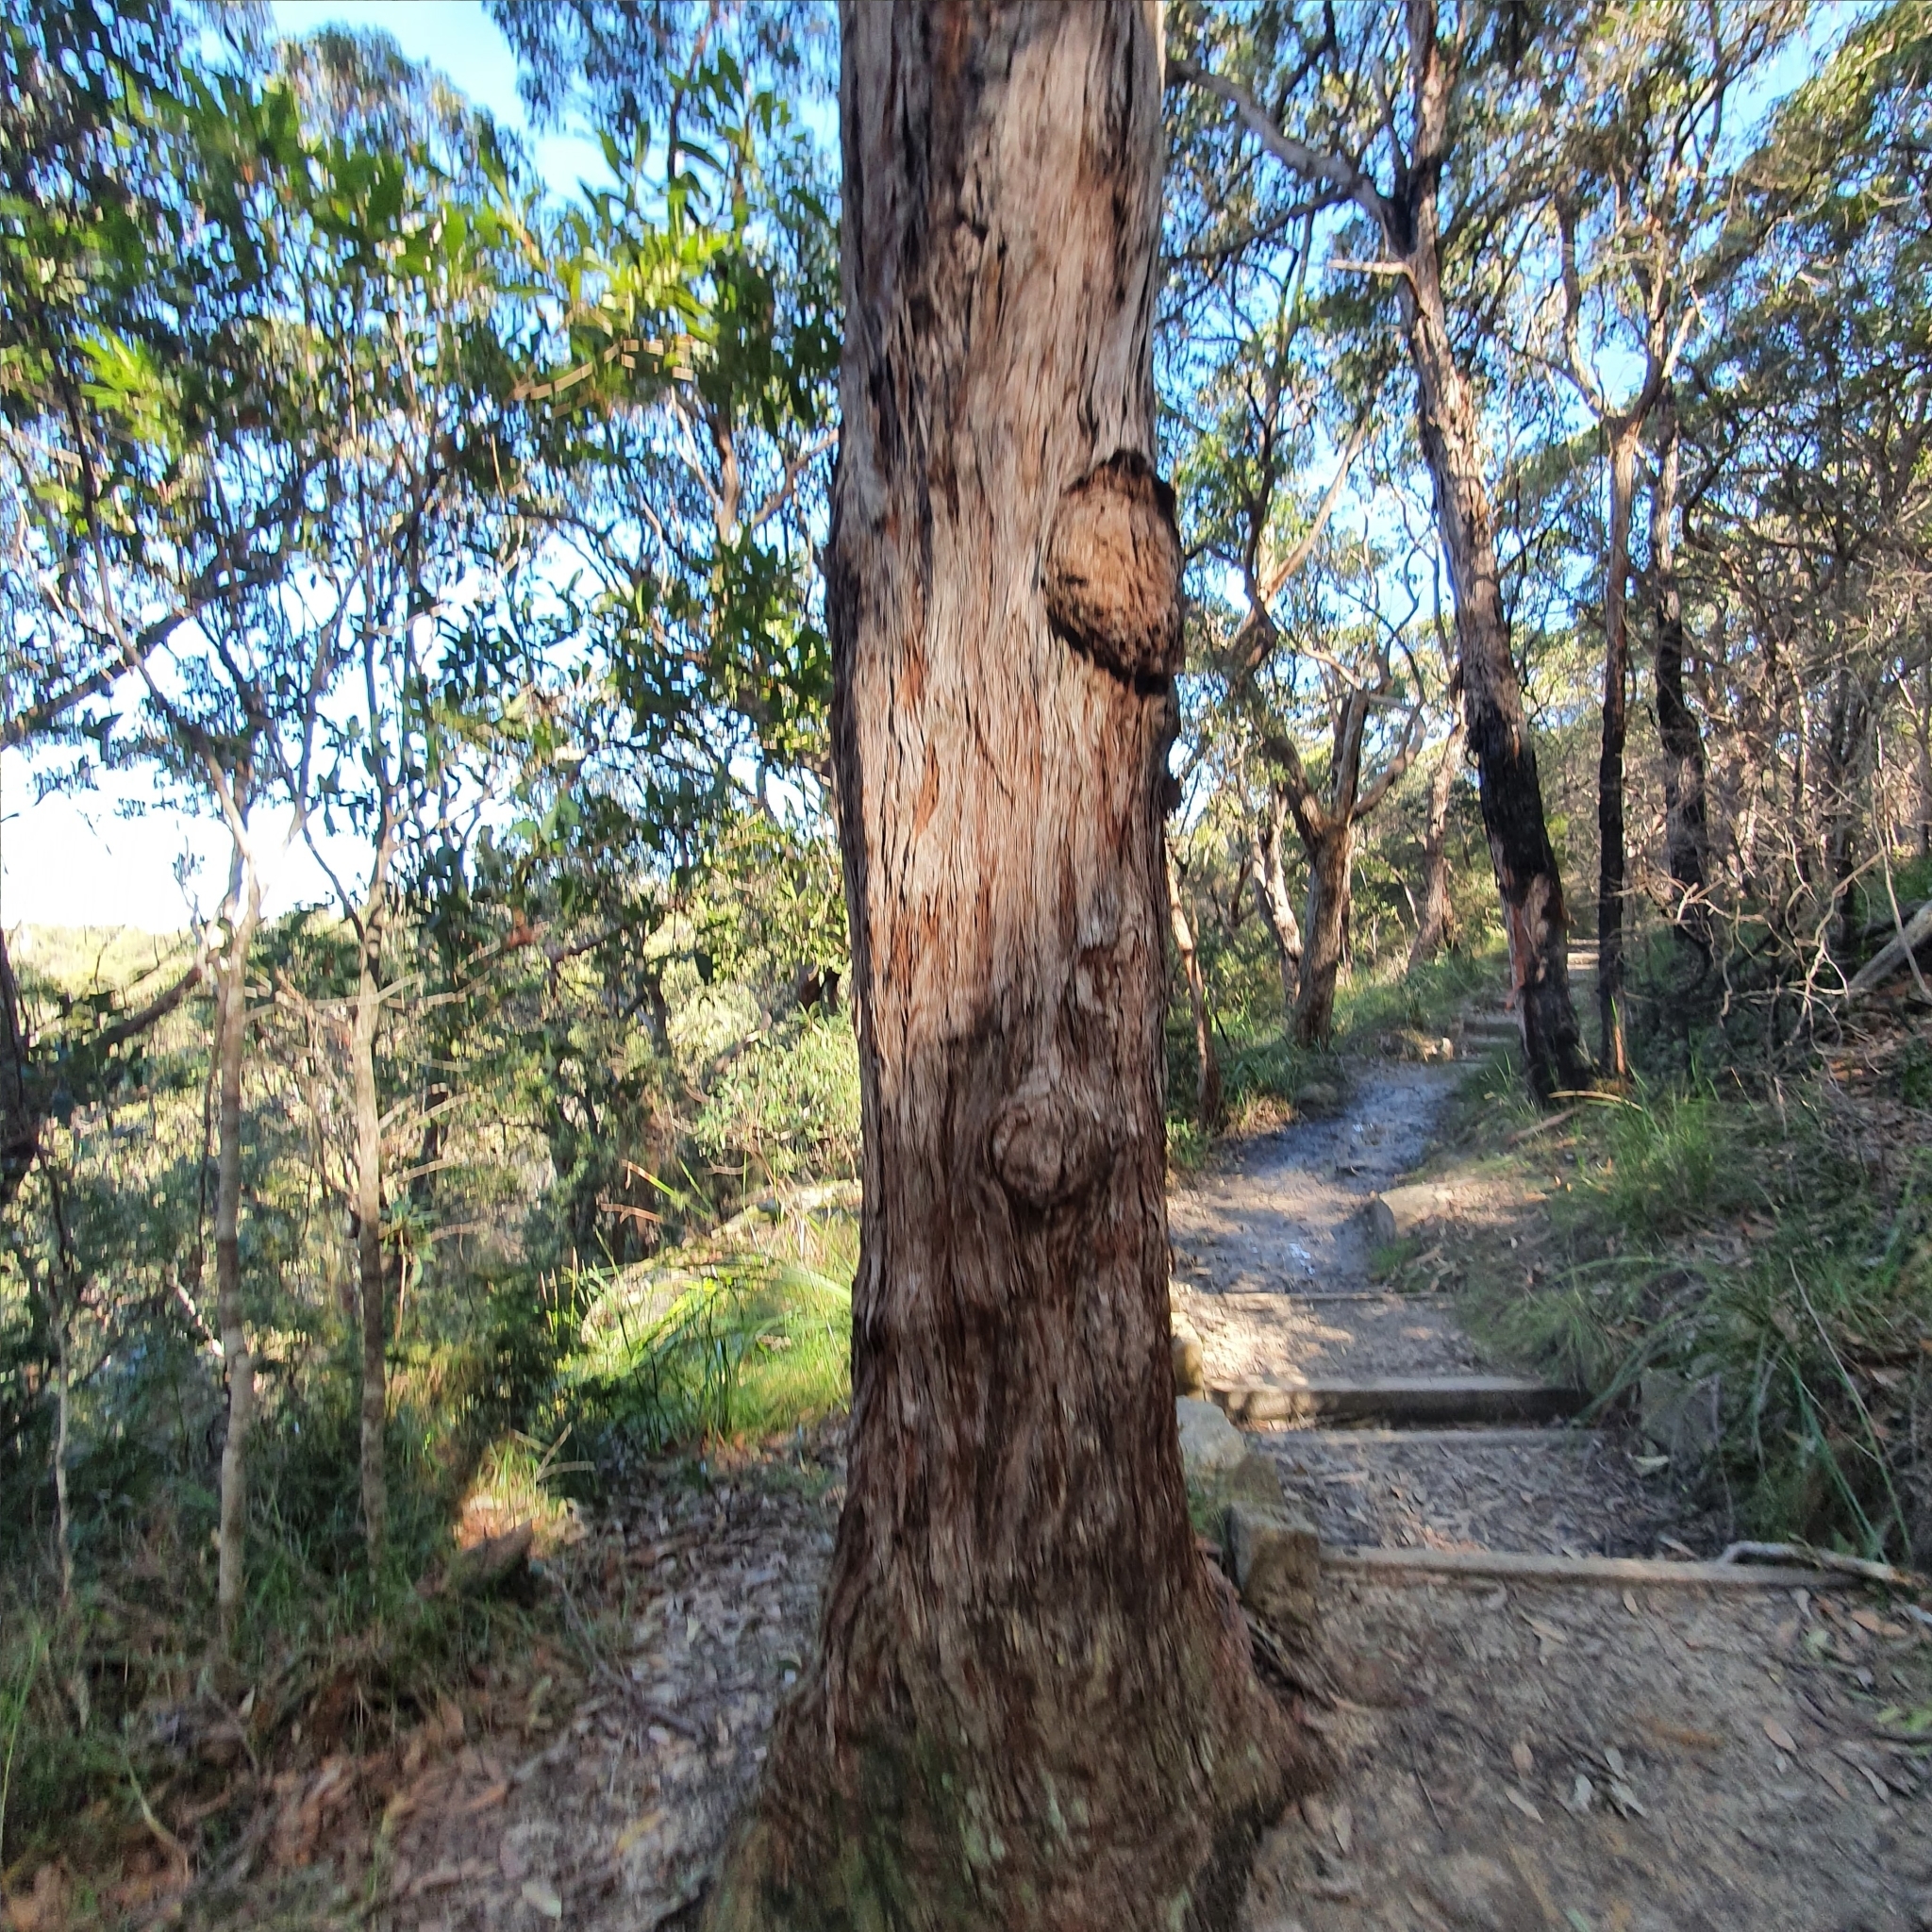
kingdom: Plantae
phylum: Tracheophyta
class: Magnoliopsida
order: Myrtales
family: Myrtaceae
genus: Eucalyptus
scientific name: Eucalyptus umbra
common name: White-mahogany
